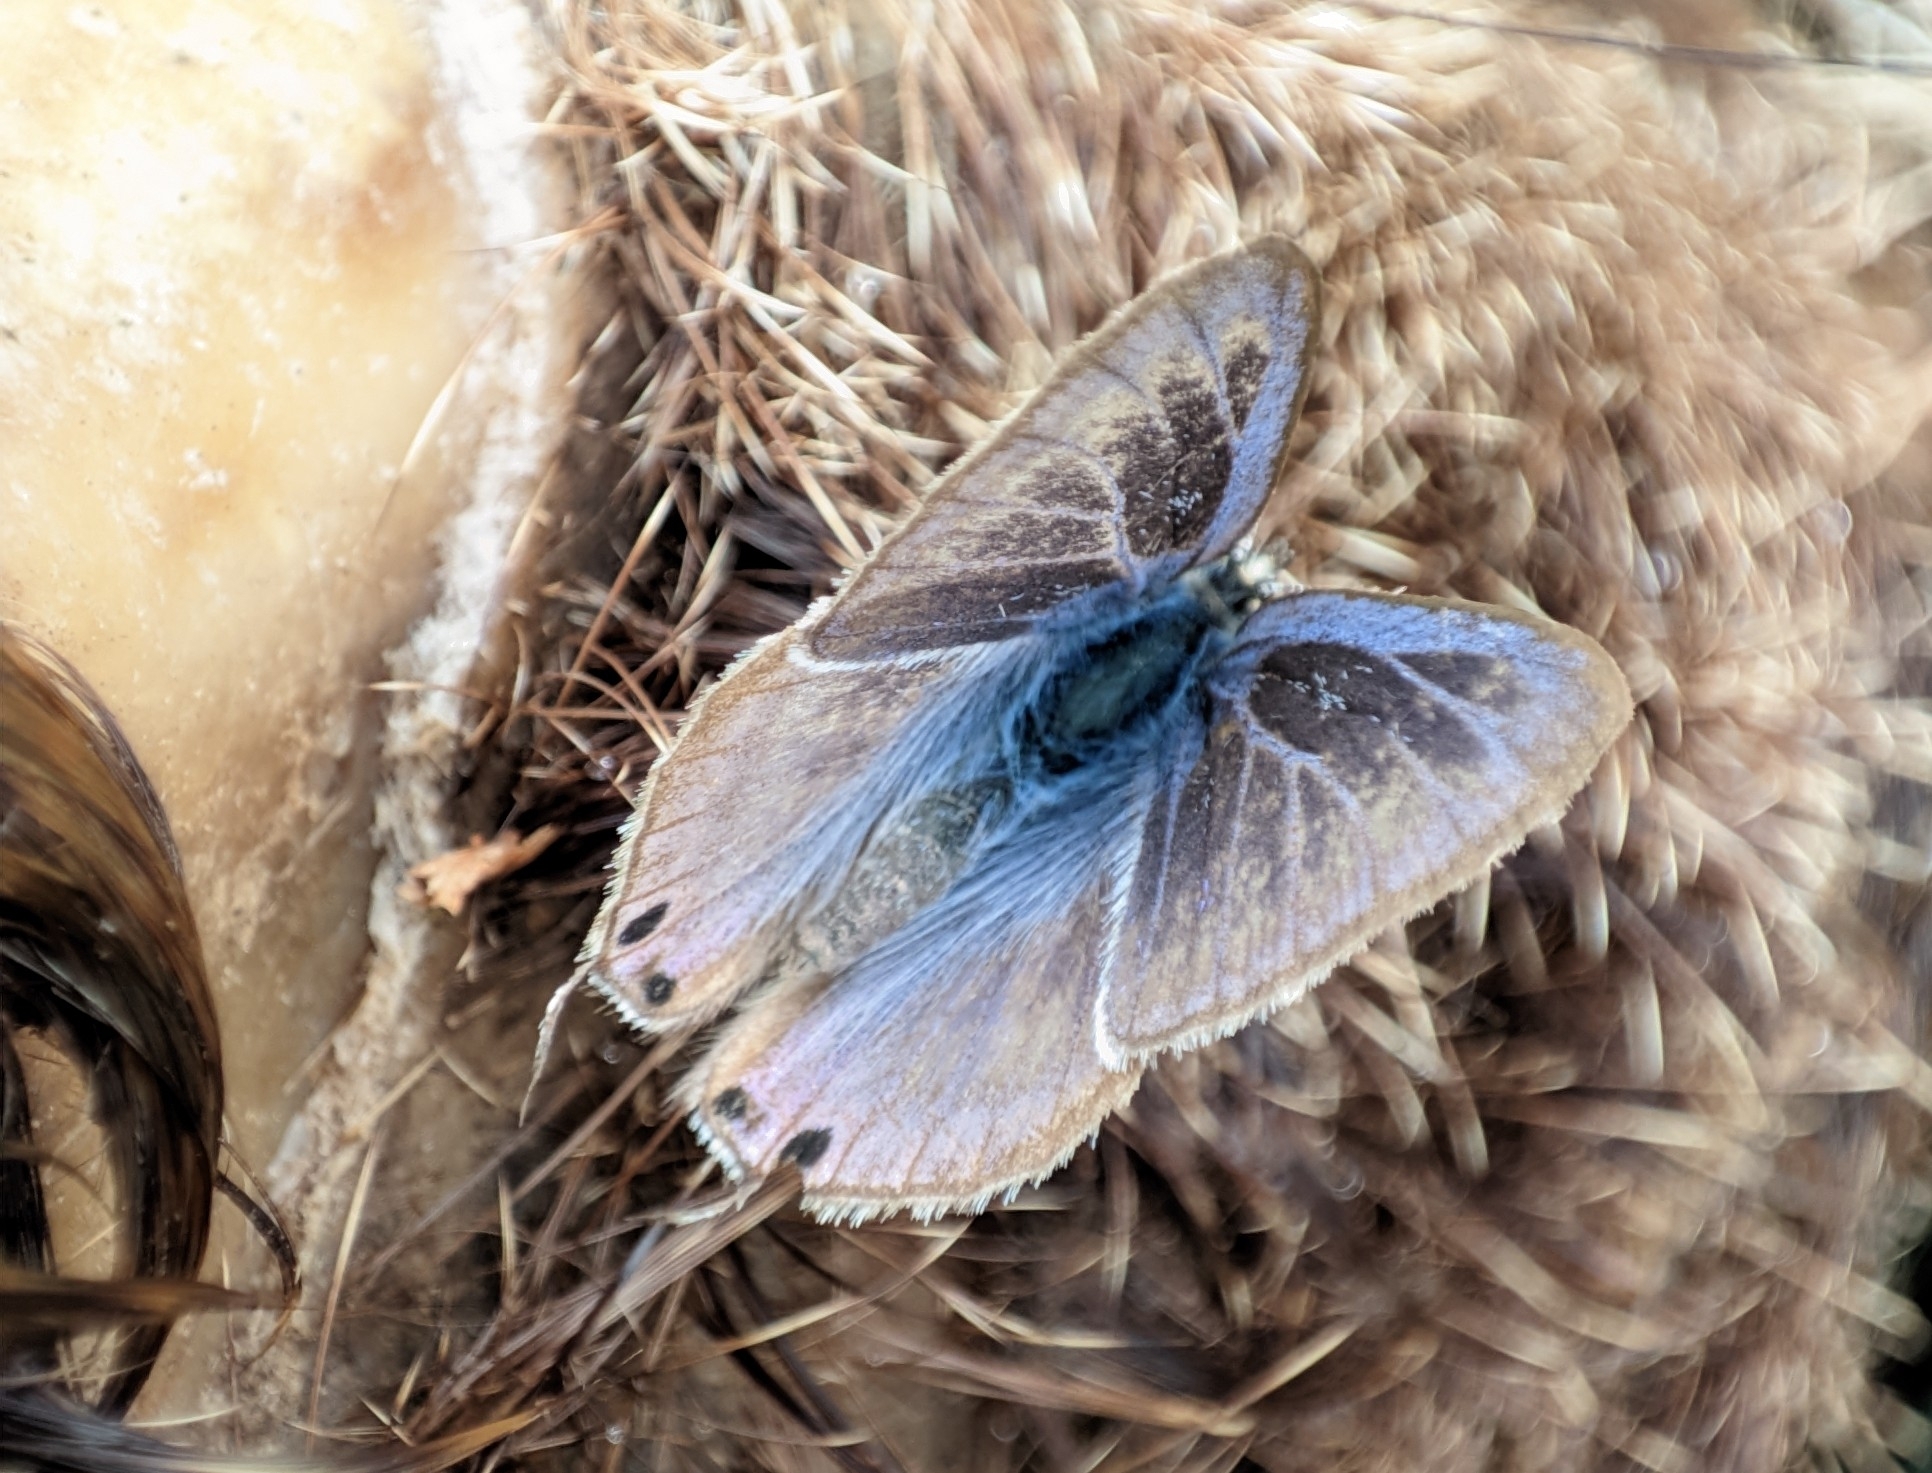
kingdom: Animalia
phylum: Arthropoda
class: Insecta
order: Lepidoptera
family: Lycaenidae
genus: Lampides
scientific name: Lampides boeticus
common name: Long-tailed blue
